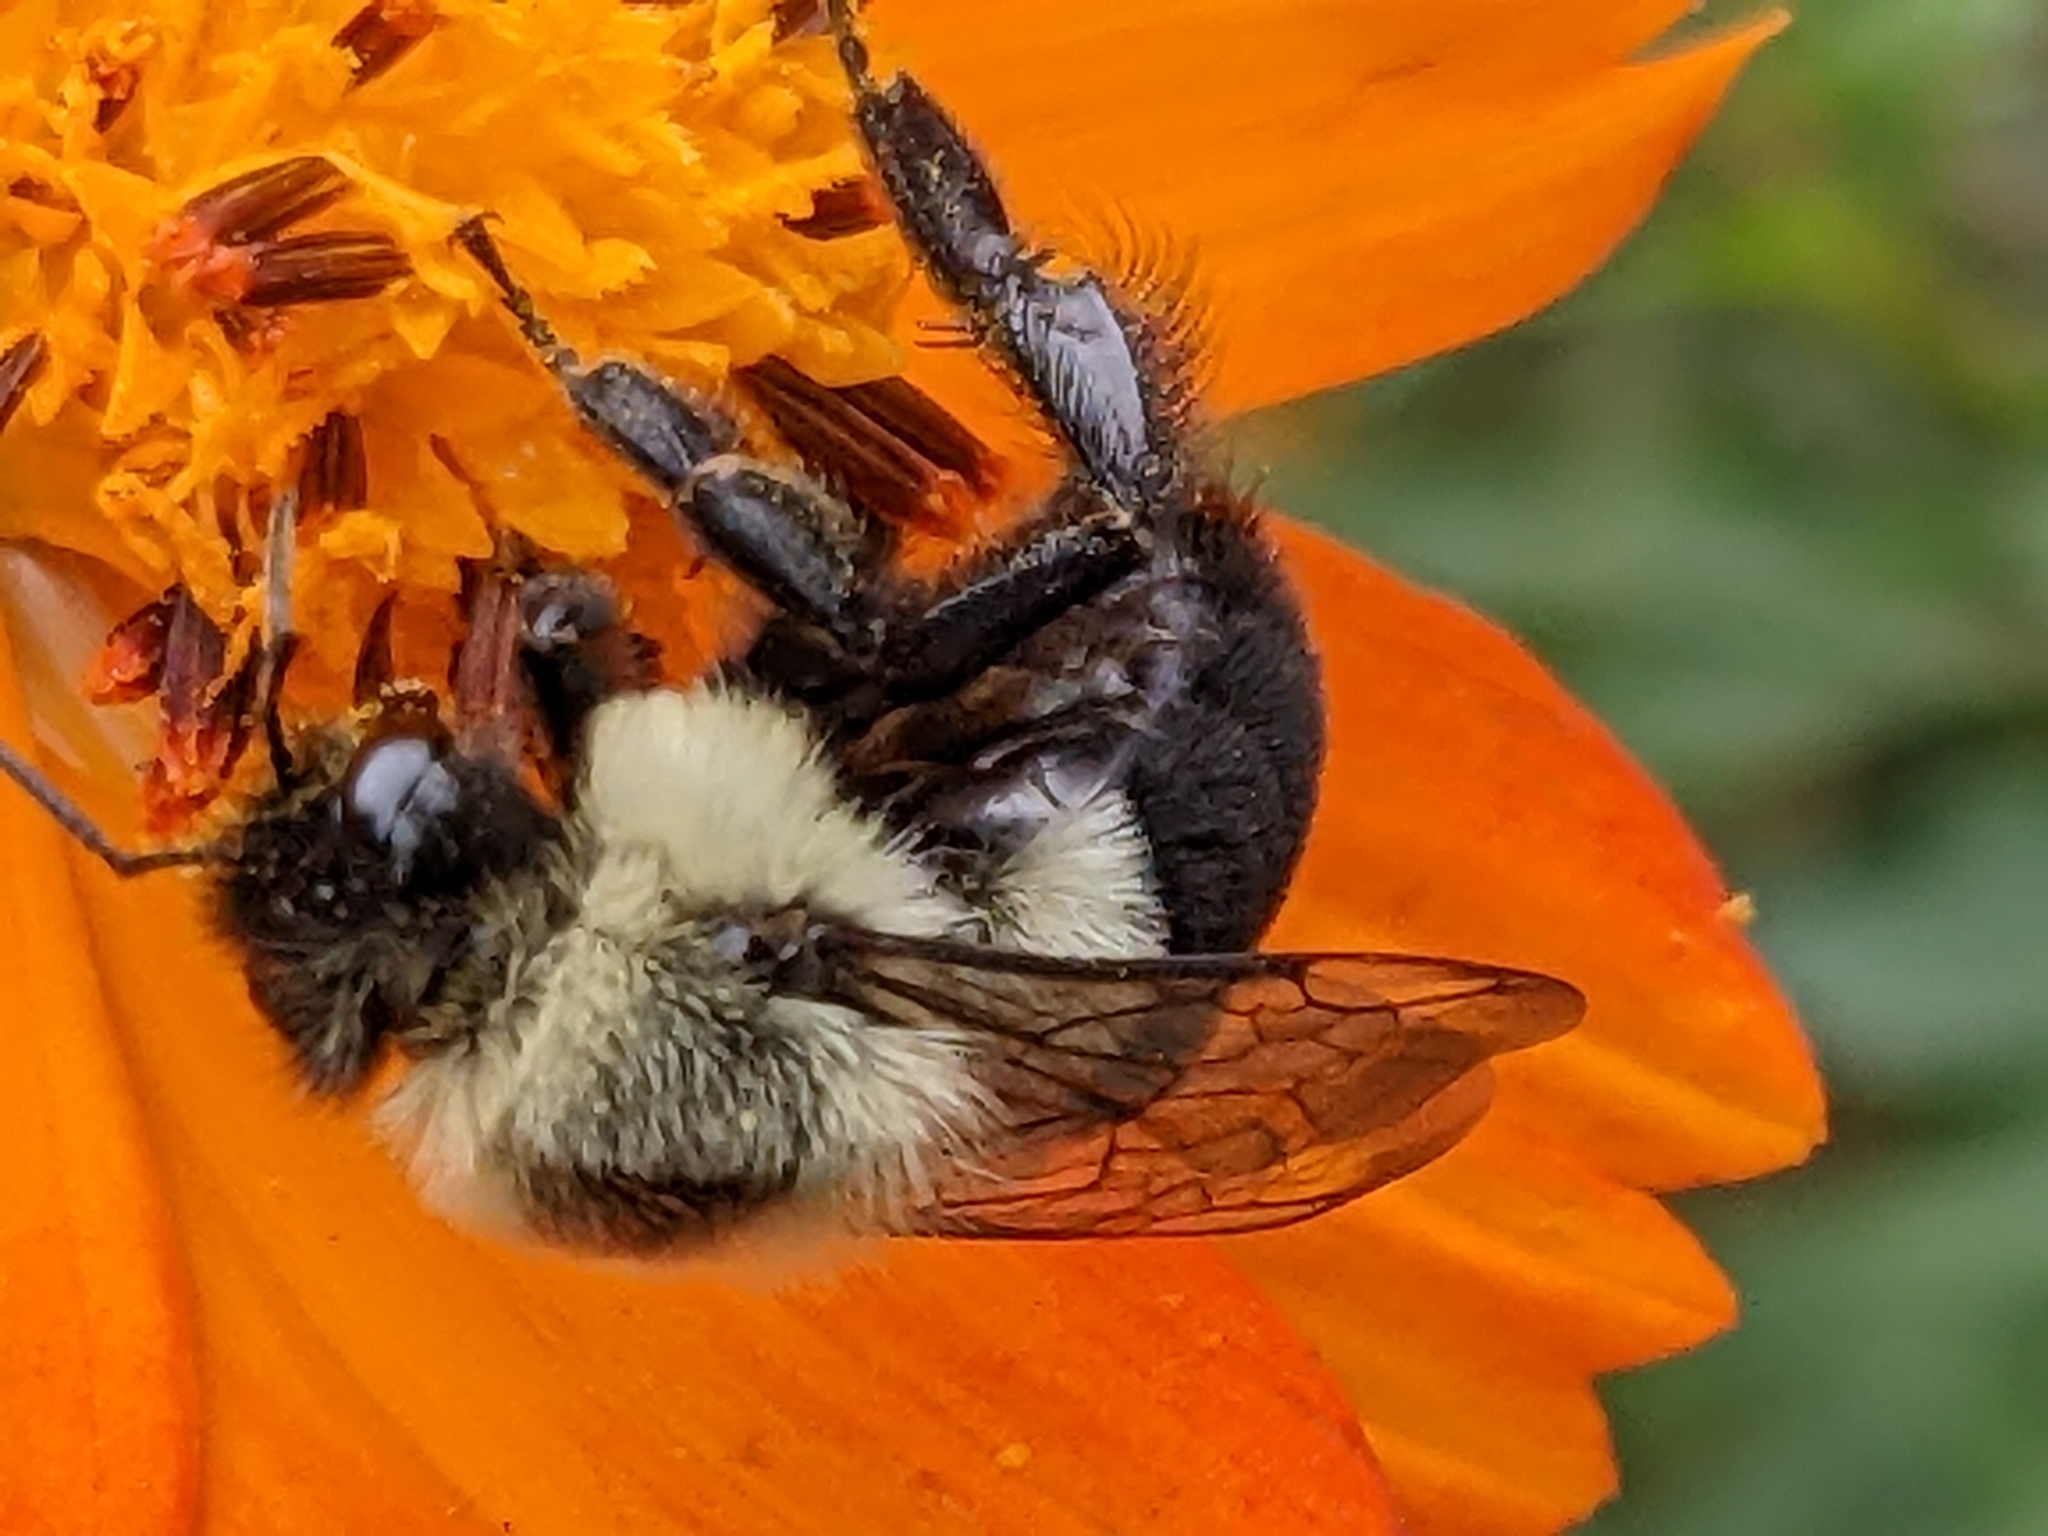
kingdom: Animalia
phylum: Arthropoda
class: Insecta
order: Hymenoptera
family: Apidae
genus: Bombus
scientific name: Bombus impatiens
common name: Common eastern bumble bee
